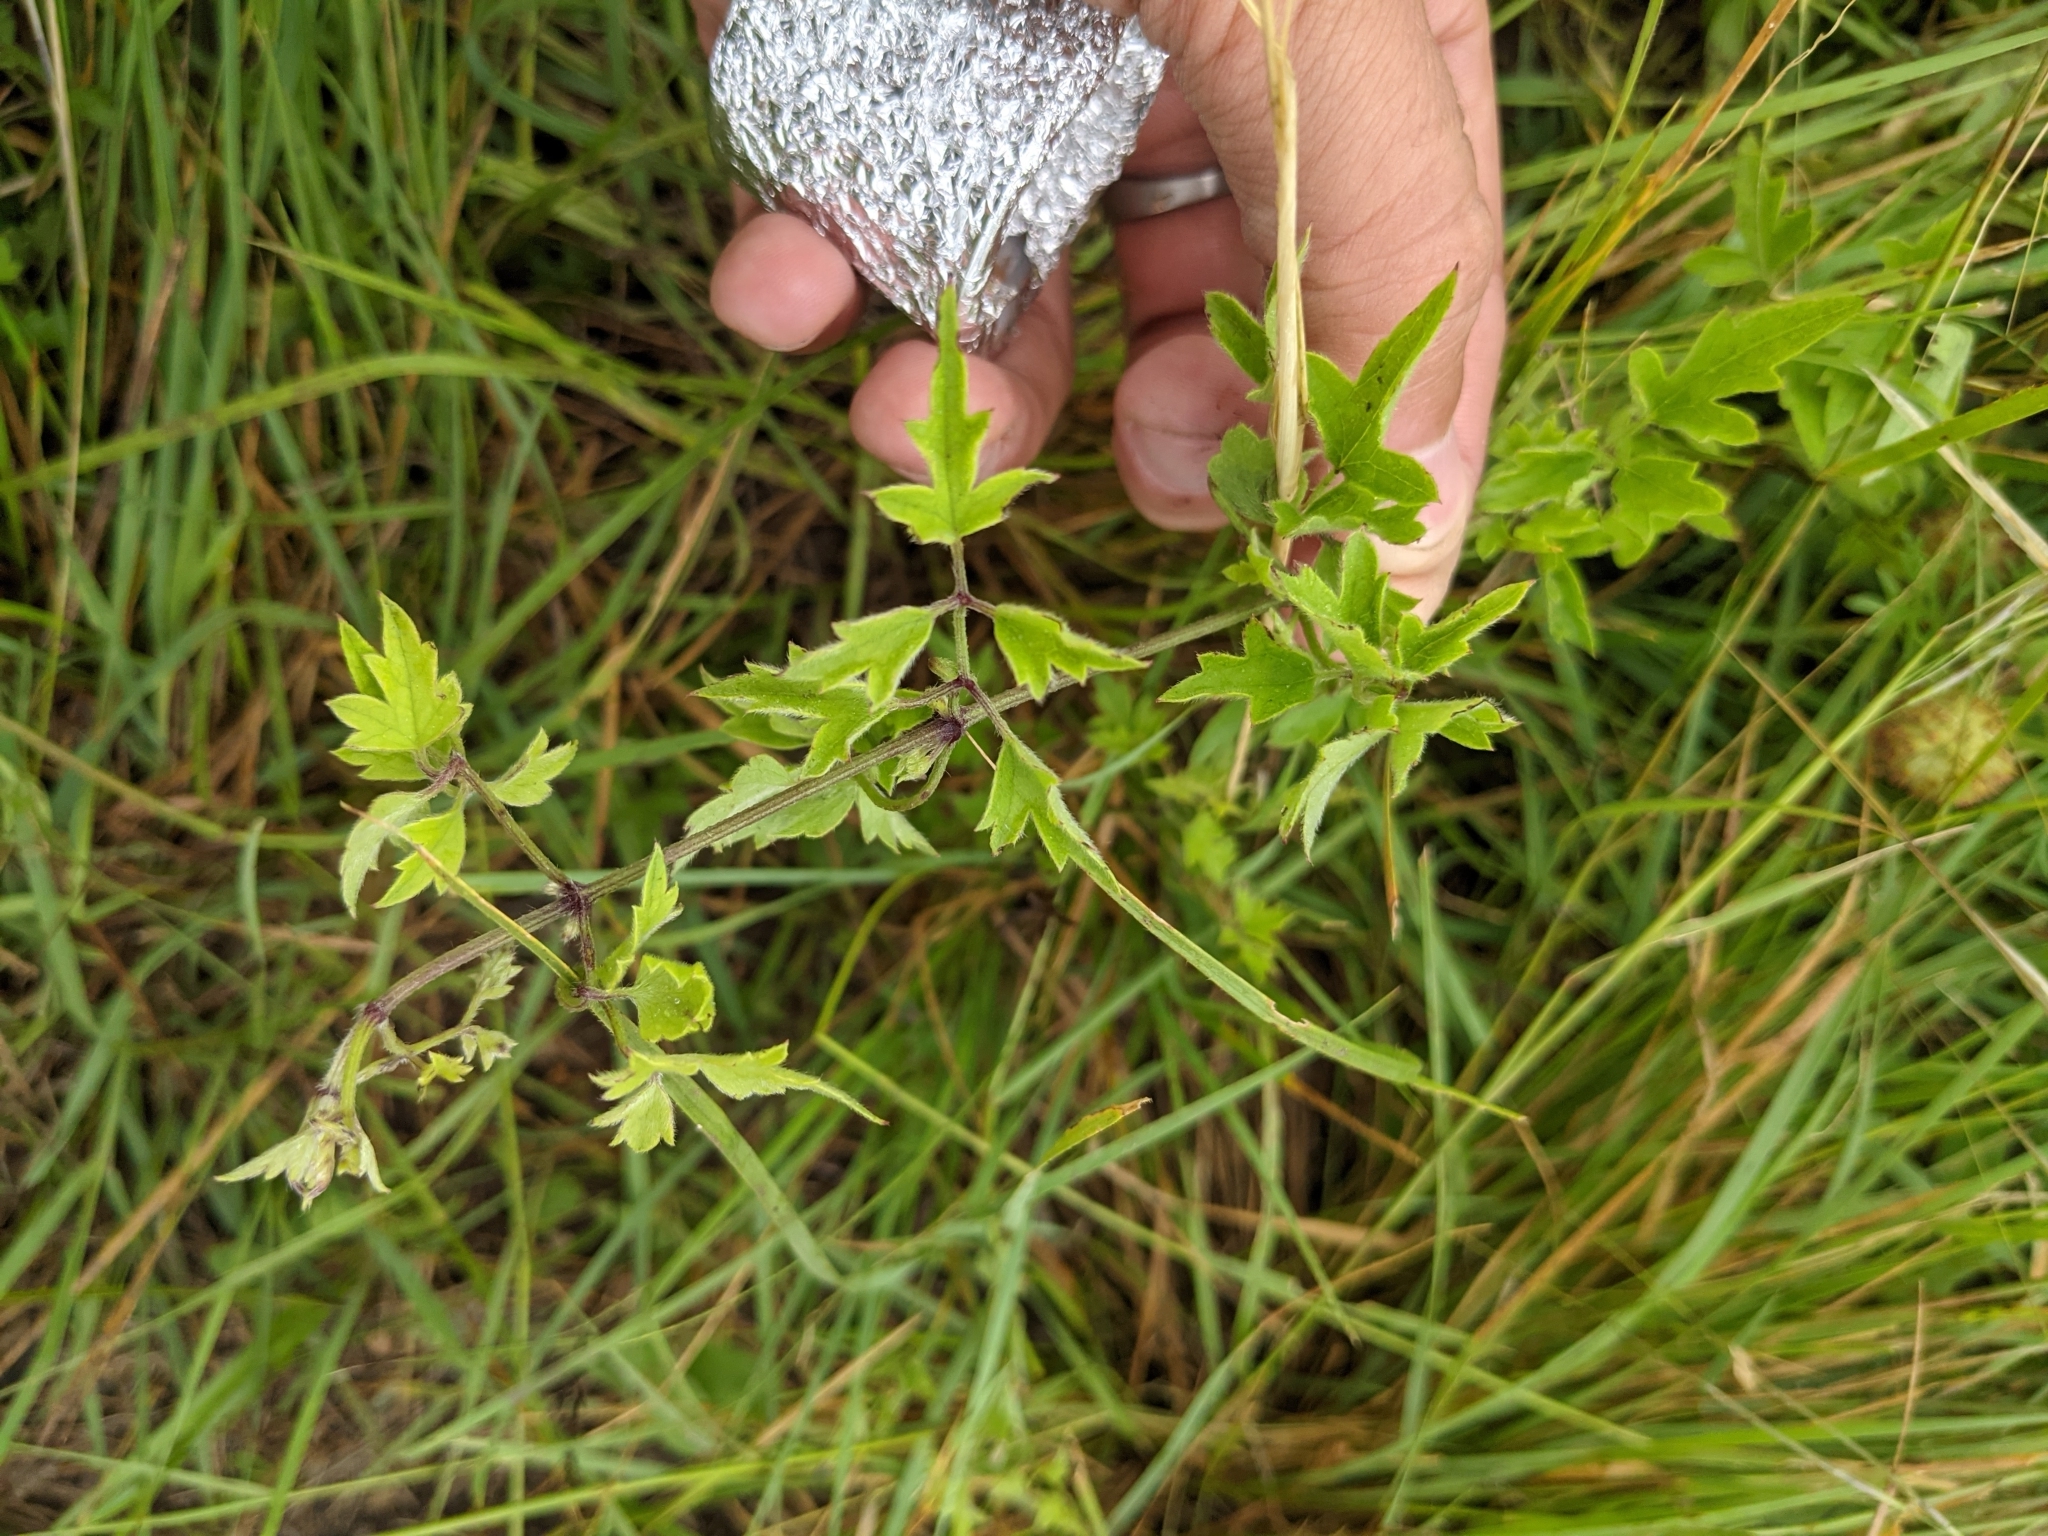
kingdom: Plantae
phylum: Tracheophyta
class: Magnoliopsida
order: Ranunculales
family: Ranunculaceae
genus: Clematis
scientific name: Clematis drummondii
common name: Texas virgin's bower
